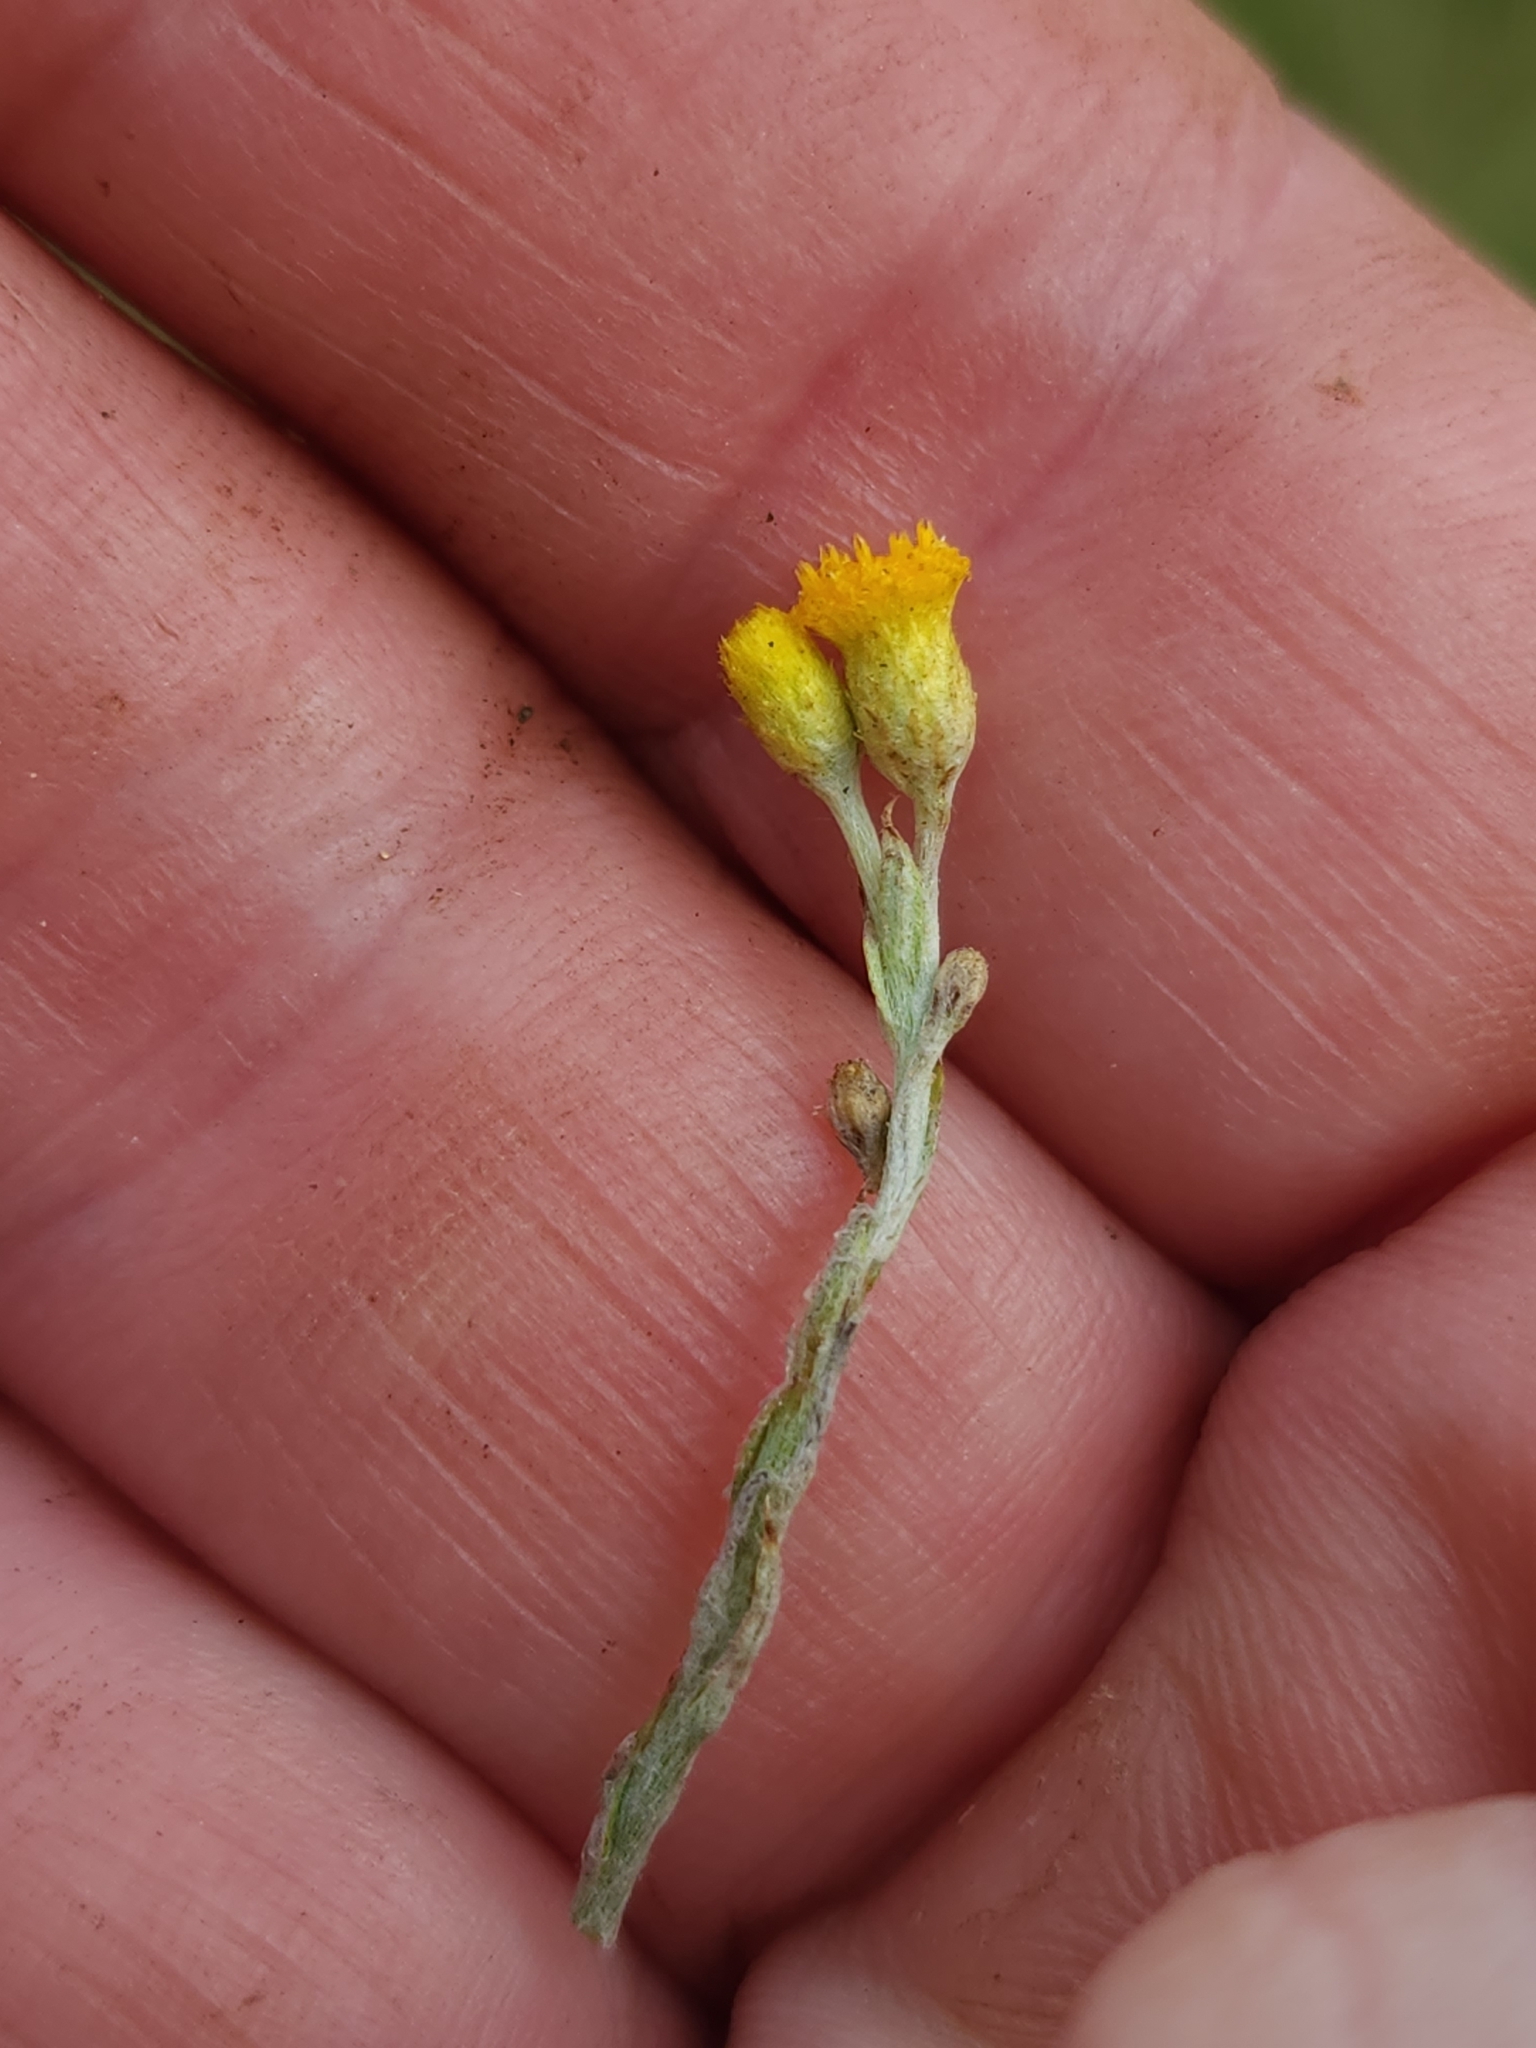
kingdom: Plantae
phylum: Tracheophyta
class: Magnoliopsida
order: Asterales
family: Asteraceae
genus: Chrysocephalum
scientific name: Chrysocephalum apiculatum
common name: Common everlasting
